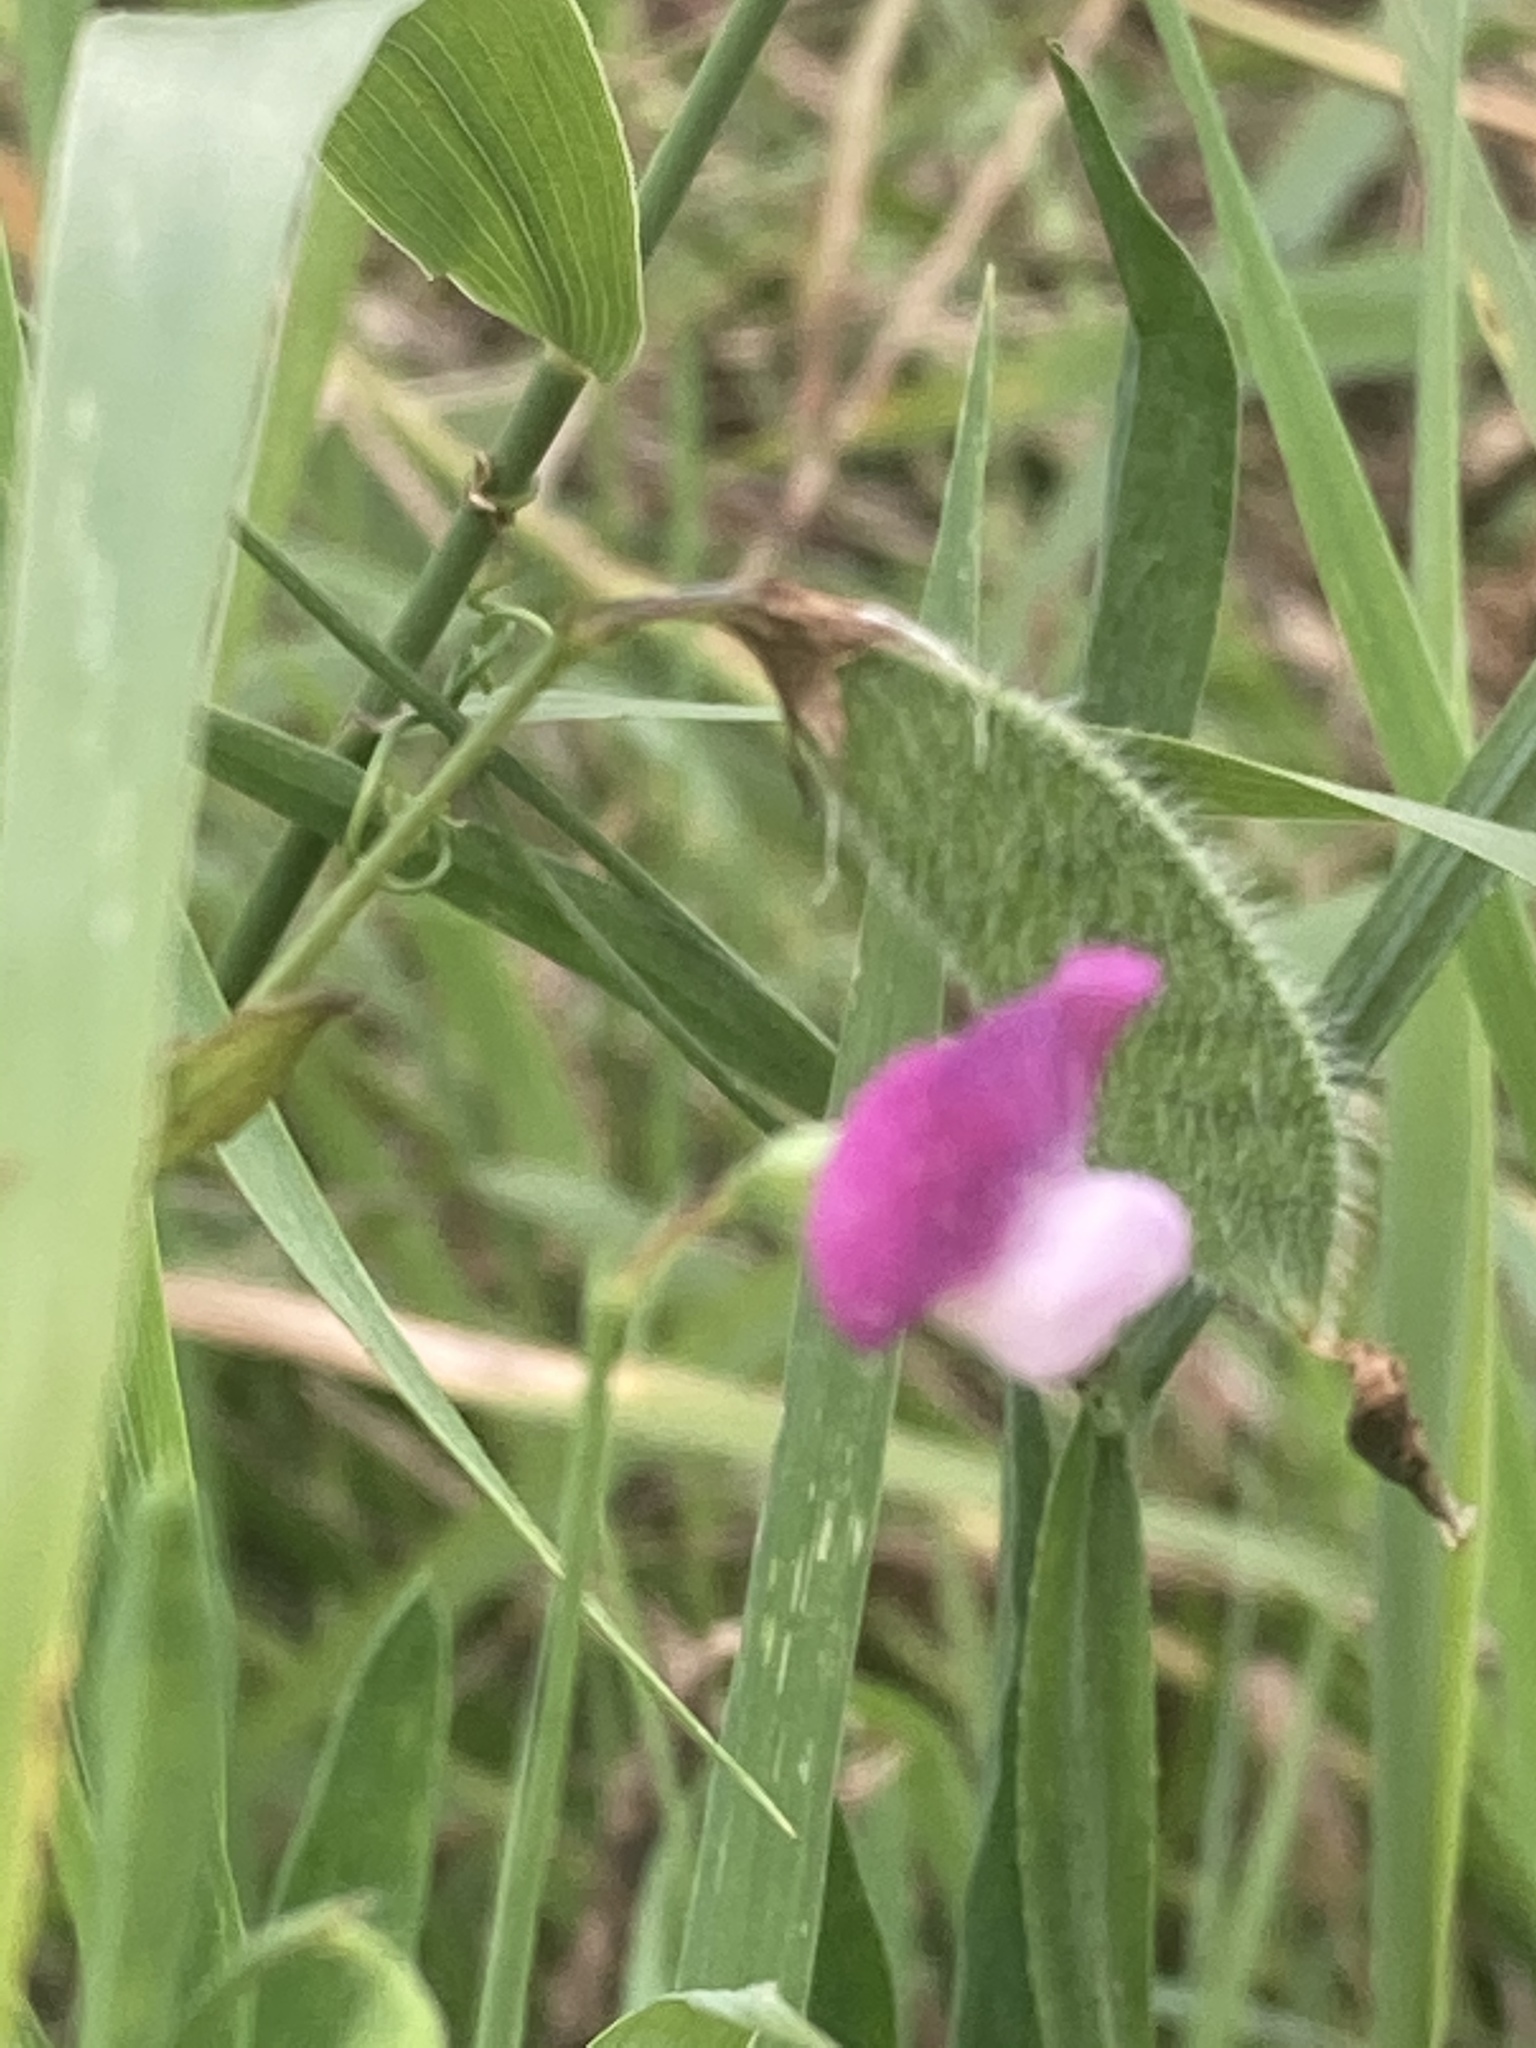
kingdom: Plantae
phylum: Tracheophyta
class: Magnoliopsida
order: Fabales
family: Fabaceae
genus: Lathyrus
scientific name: Lathyrus hirsutus
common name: Hairy vetchling
